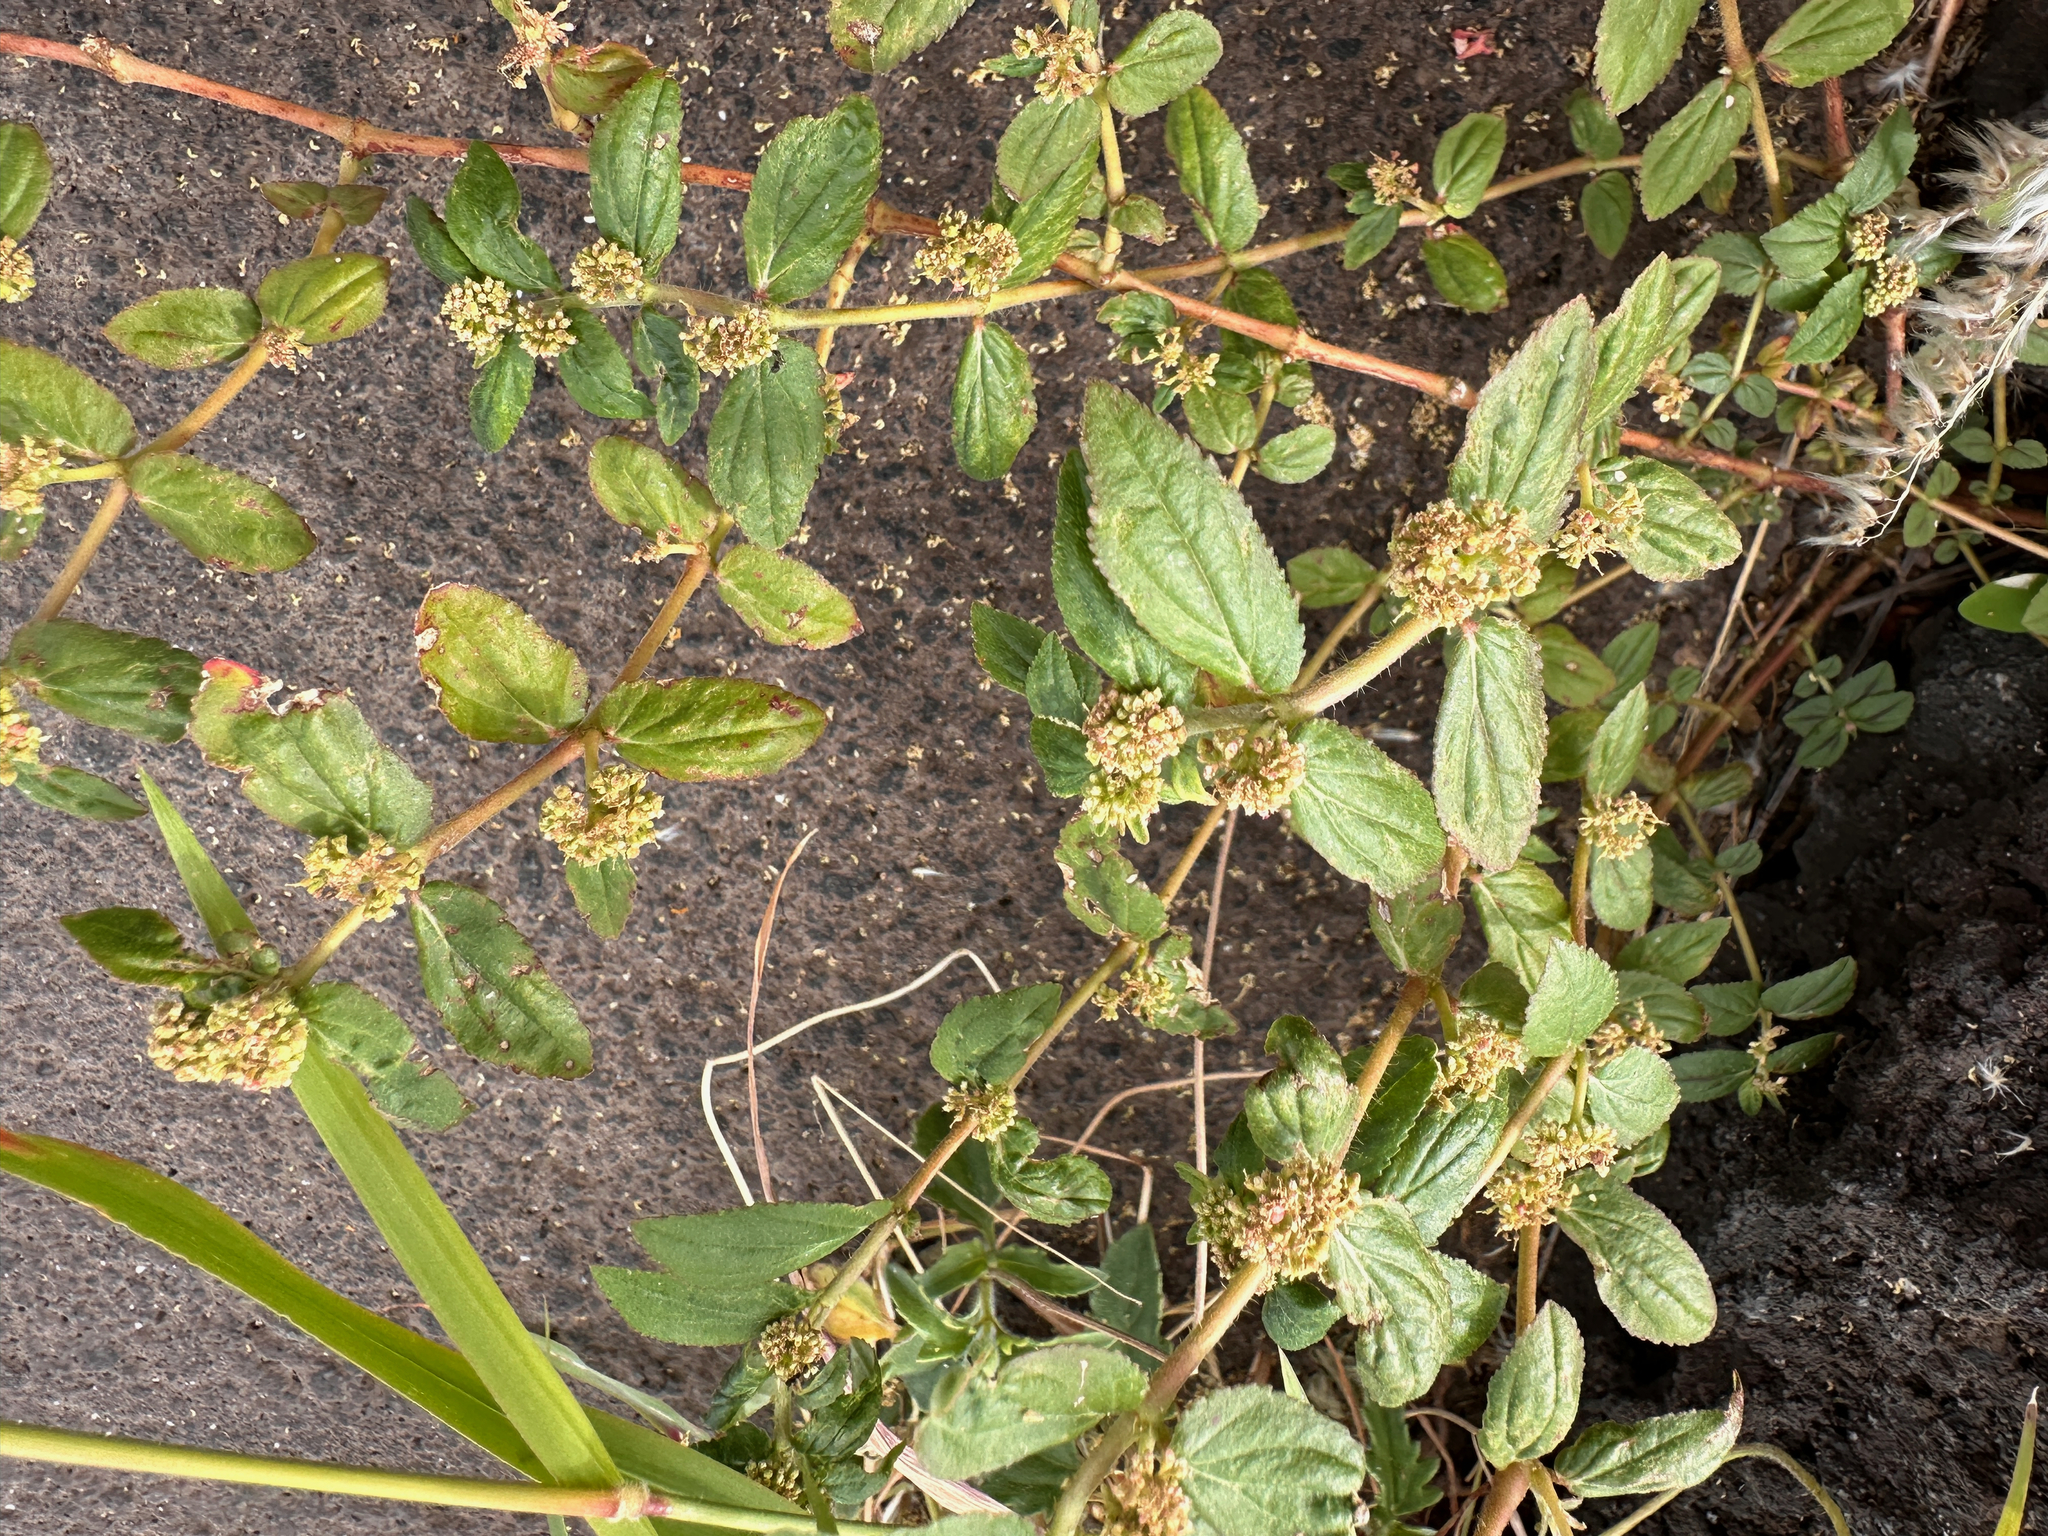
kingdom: Plantae
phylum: Tracheophyta
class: Magnoliopsida
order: Malpighiales
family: Euphorbiaceae
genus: Euphorbia
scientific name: Euphorbia hirta
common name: Pillpod sandmat
